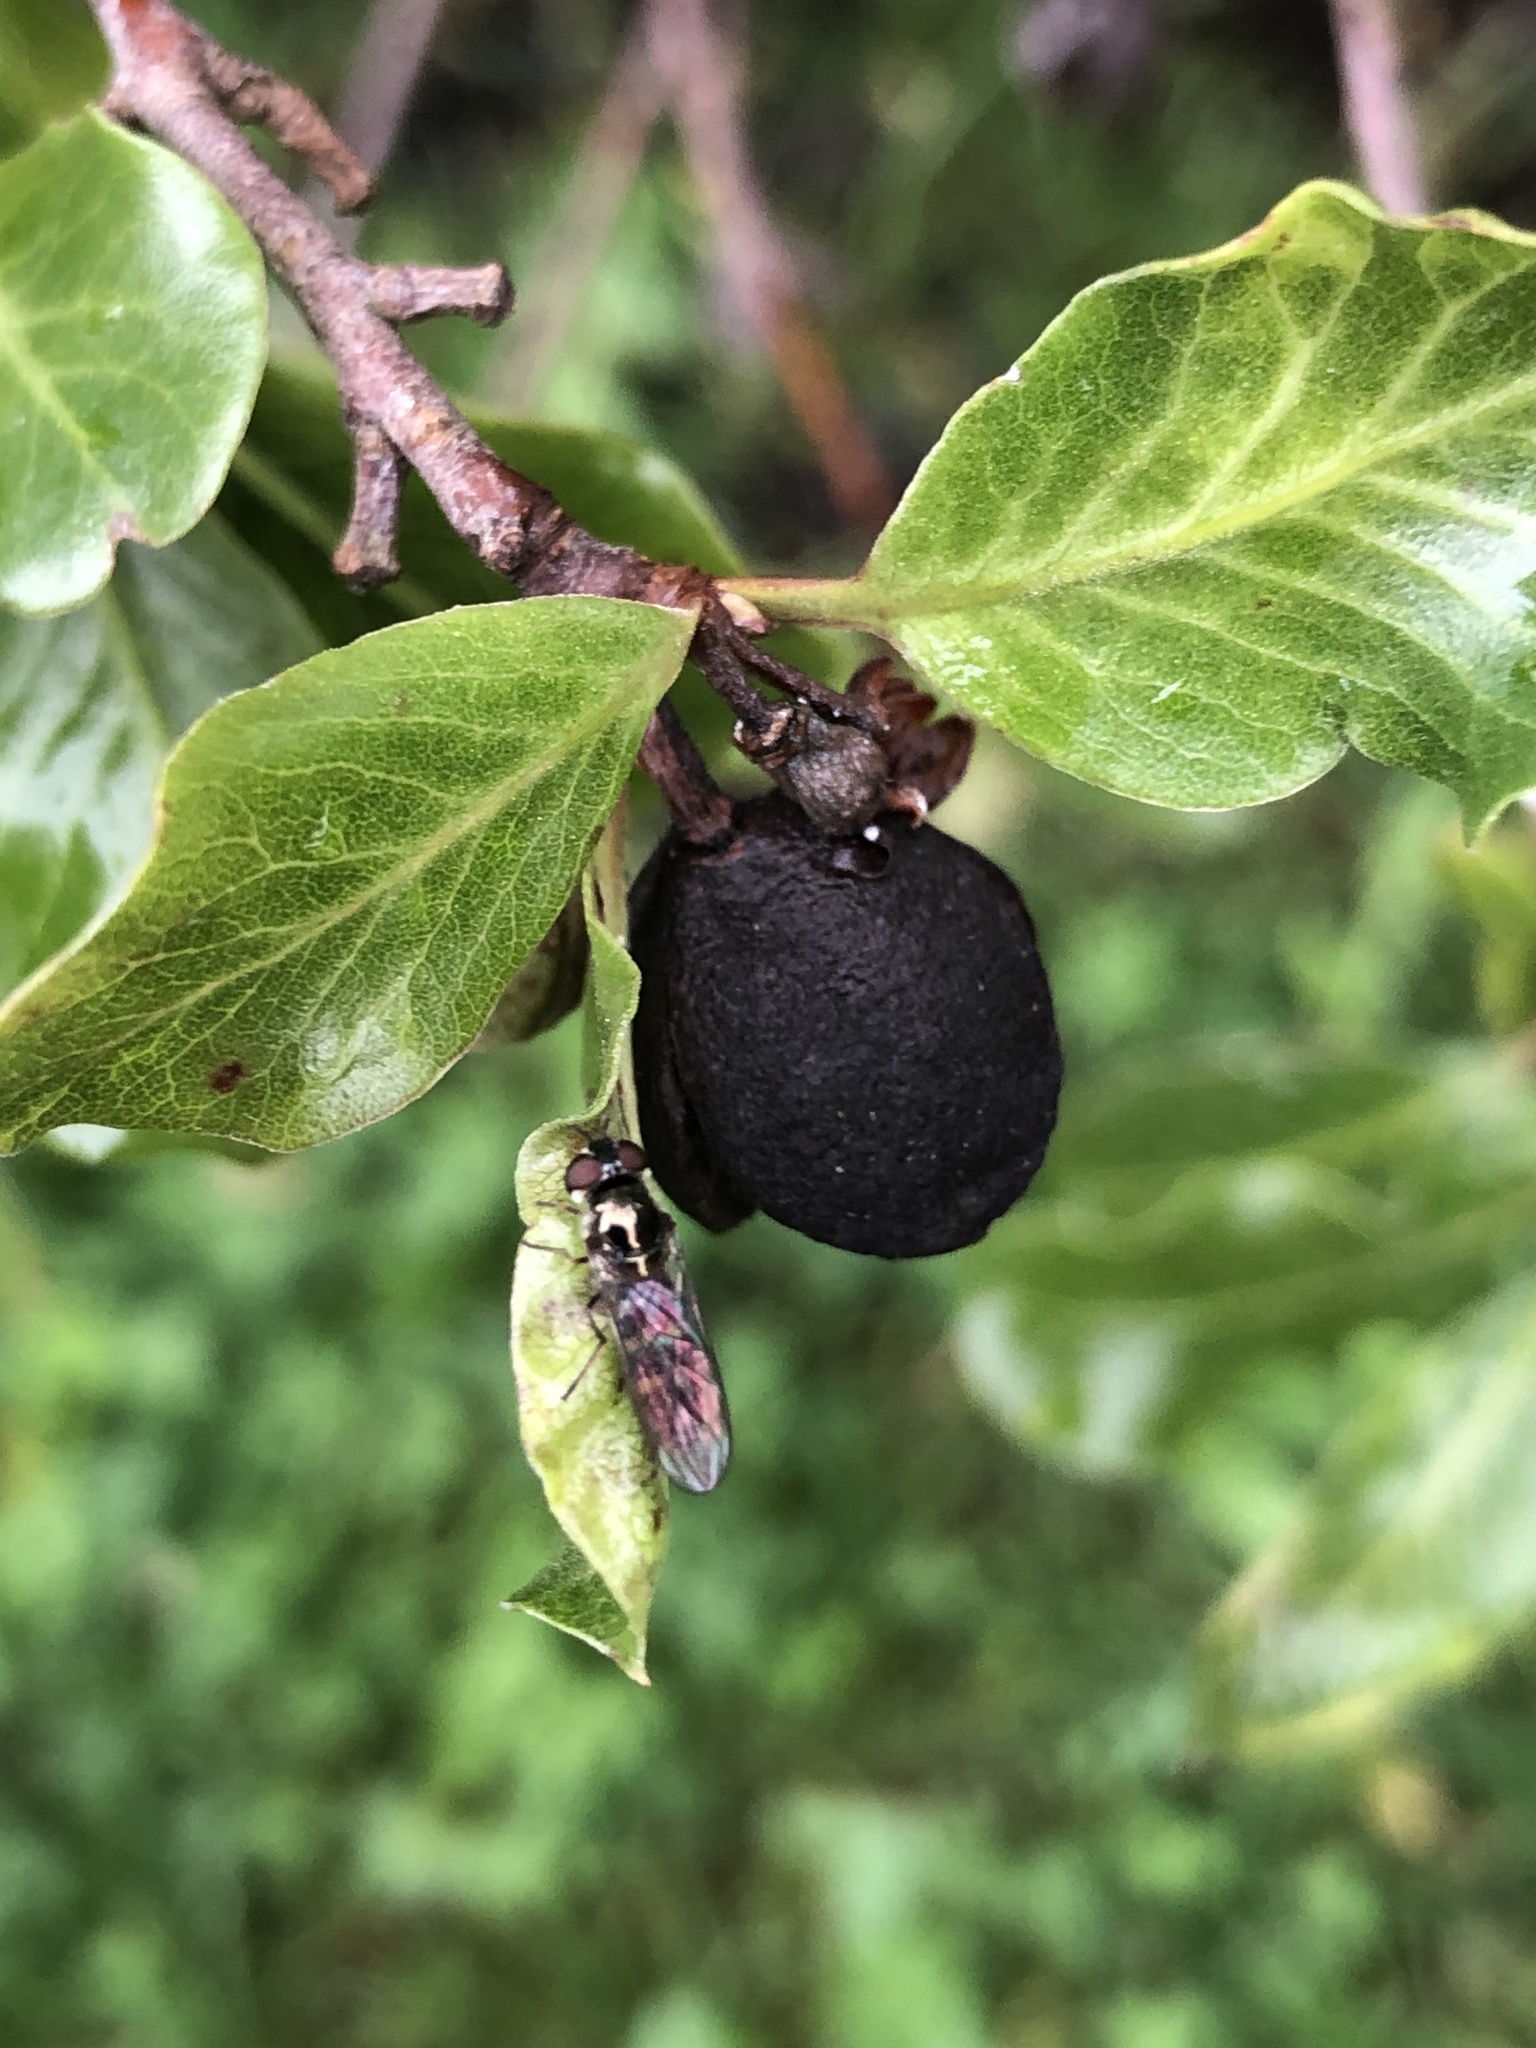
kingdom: Animalia
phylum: Arthropoda
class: Insecta
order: Diptera
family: Syrphidae
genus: Melangyna
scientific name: Melangyna novaezelandiae
